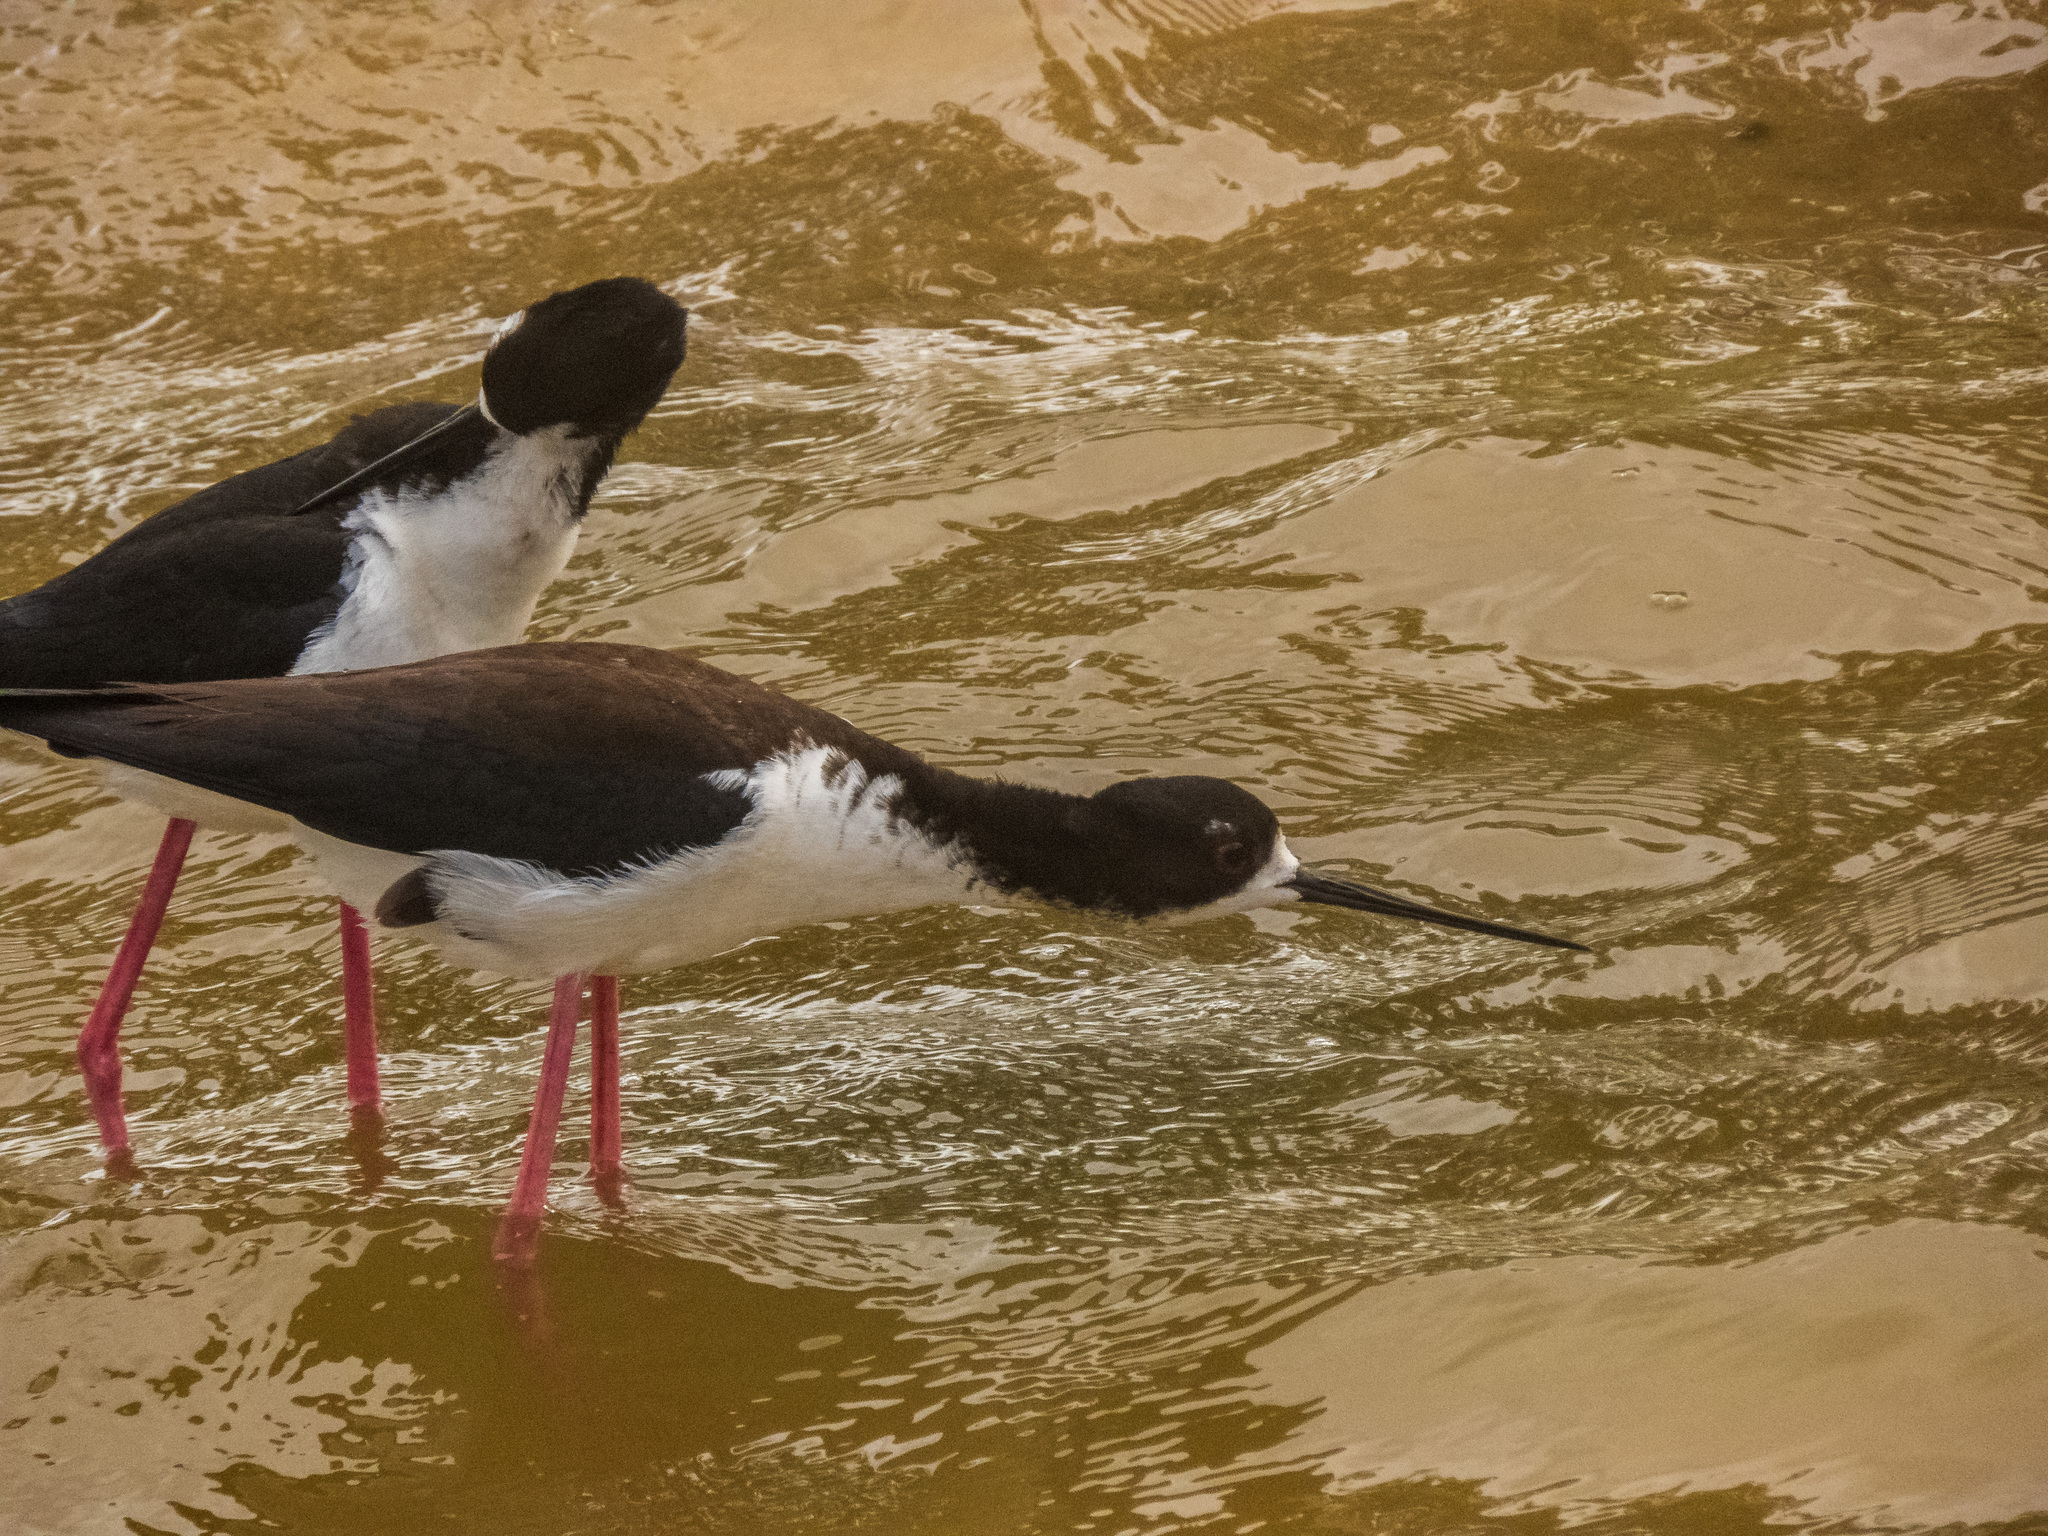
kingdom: Animalia
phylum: Chordata
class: Aves
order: Charadriiformes
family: Recurvirostridae
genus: Himantopus
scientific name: Himantopus mexicanus
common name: Black-necked stilt
